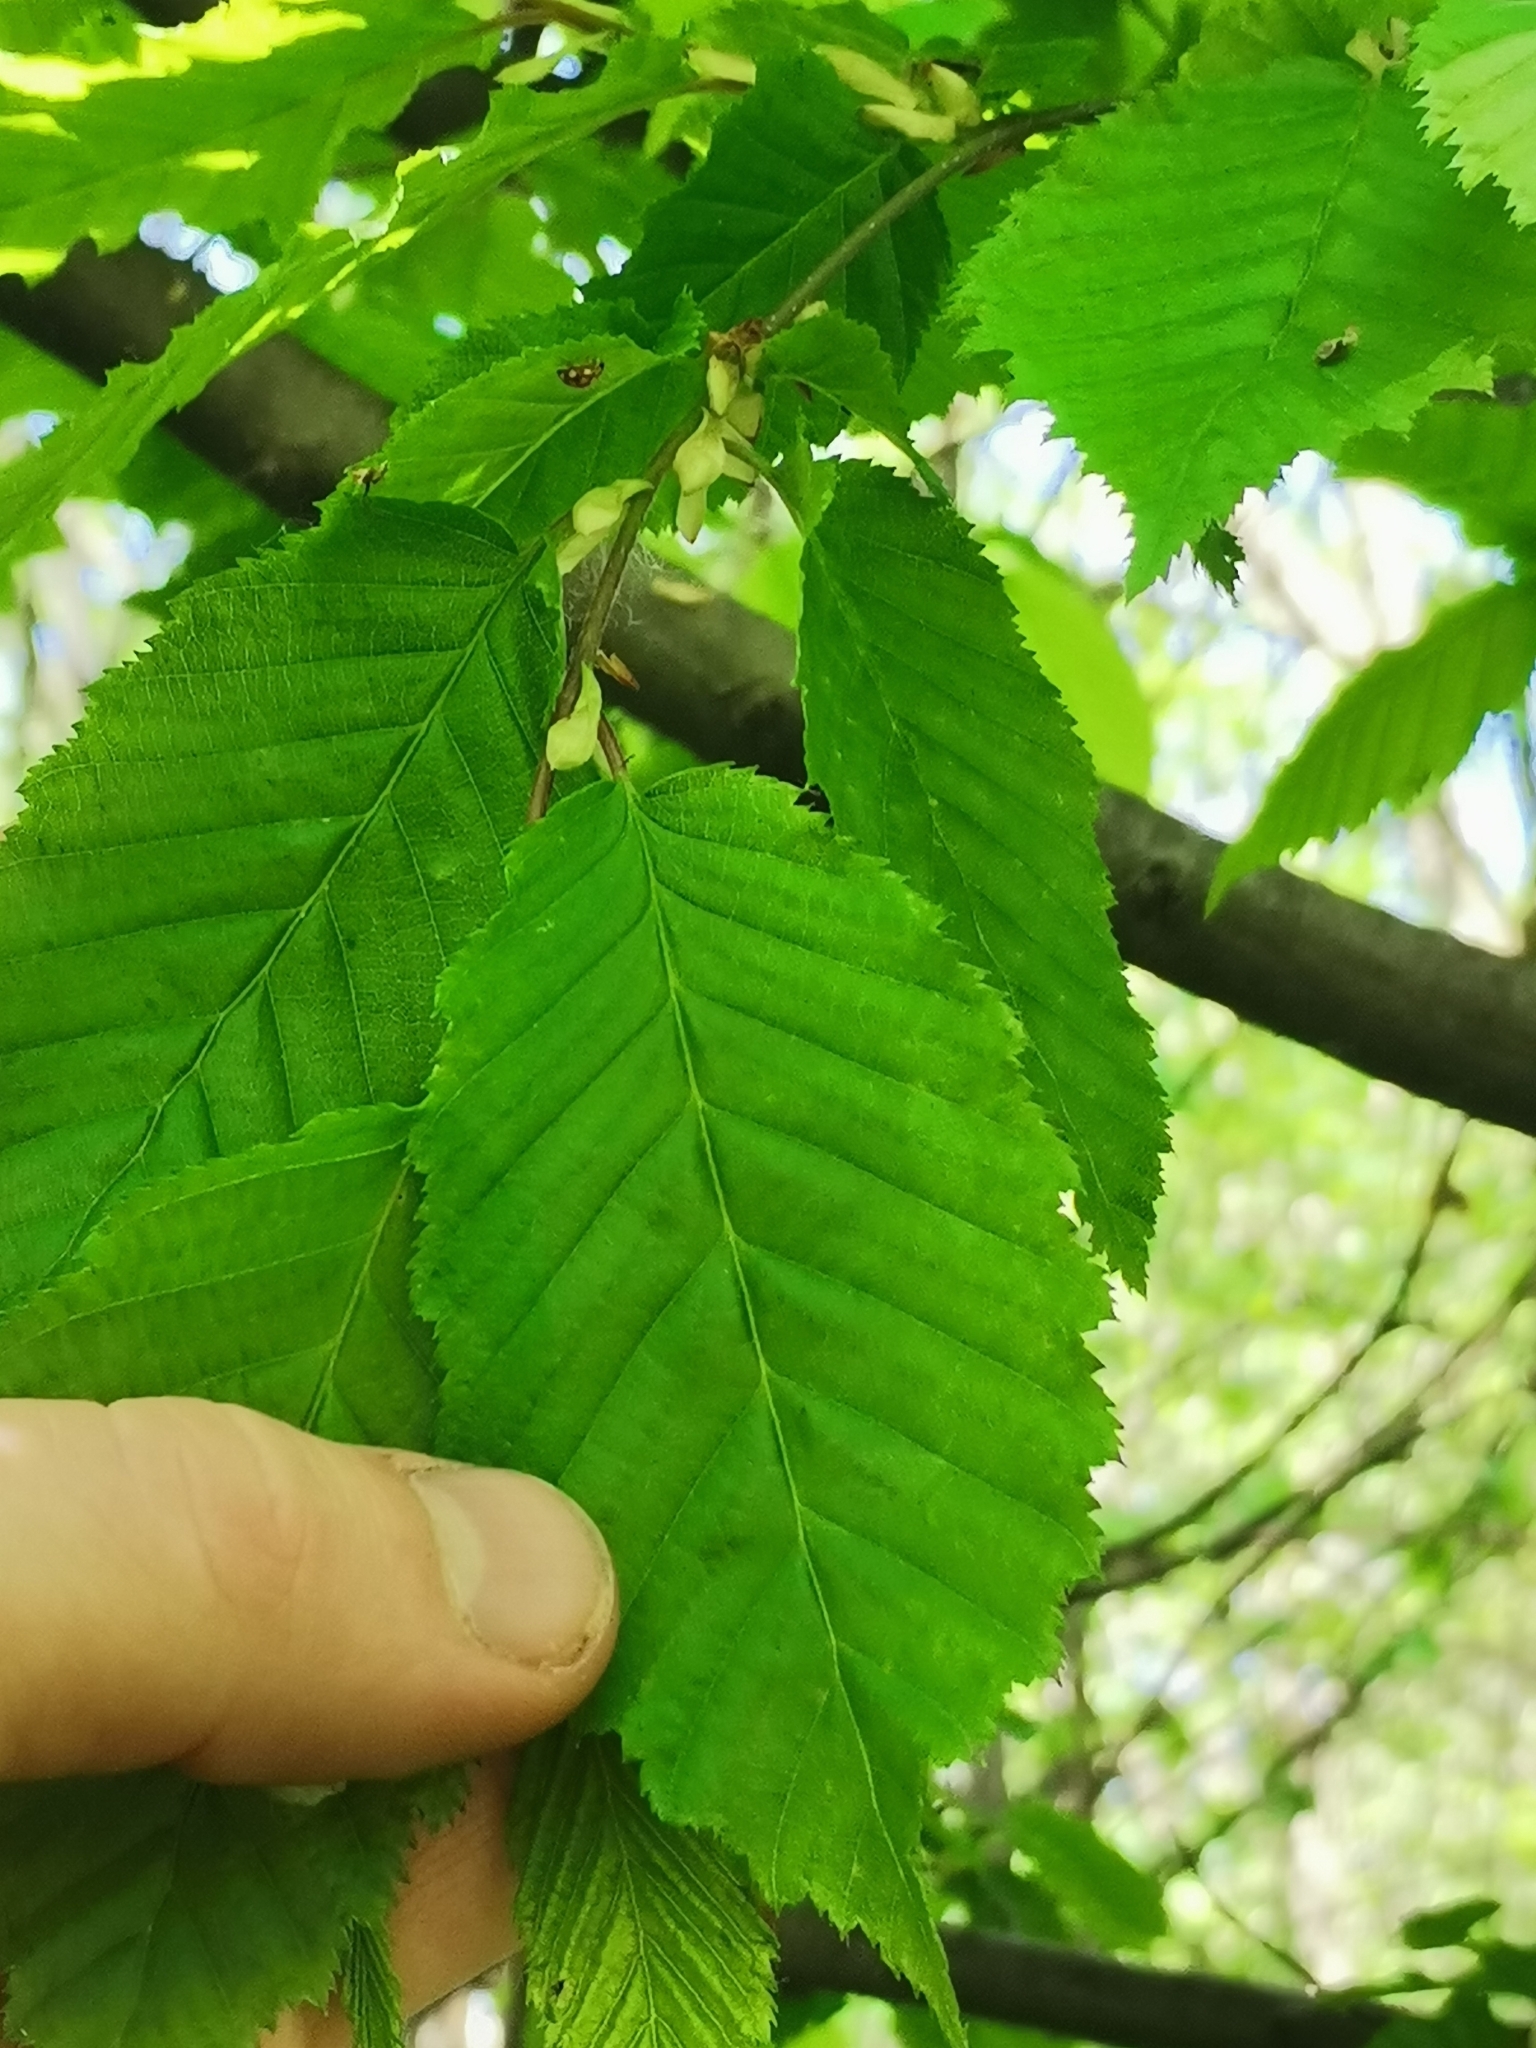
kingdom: Plantae
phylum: Tracheophyta
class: Magnoliopsida
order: Fagales
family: Betulaceae
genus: Carpinus
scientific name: Carpinus betulus
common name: Hornbeam
